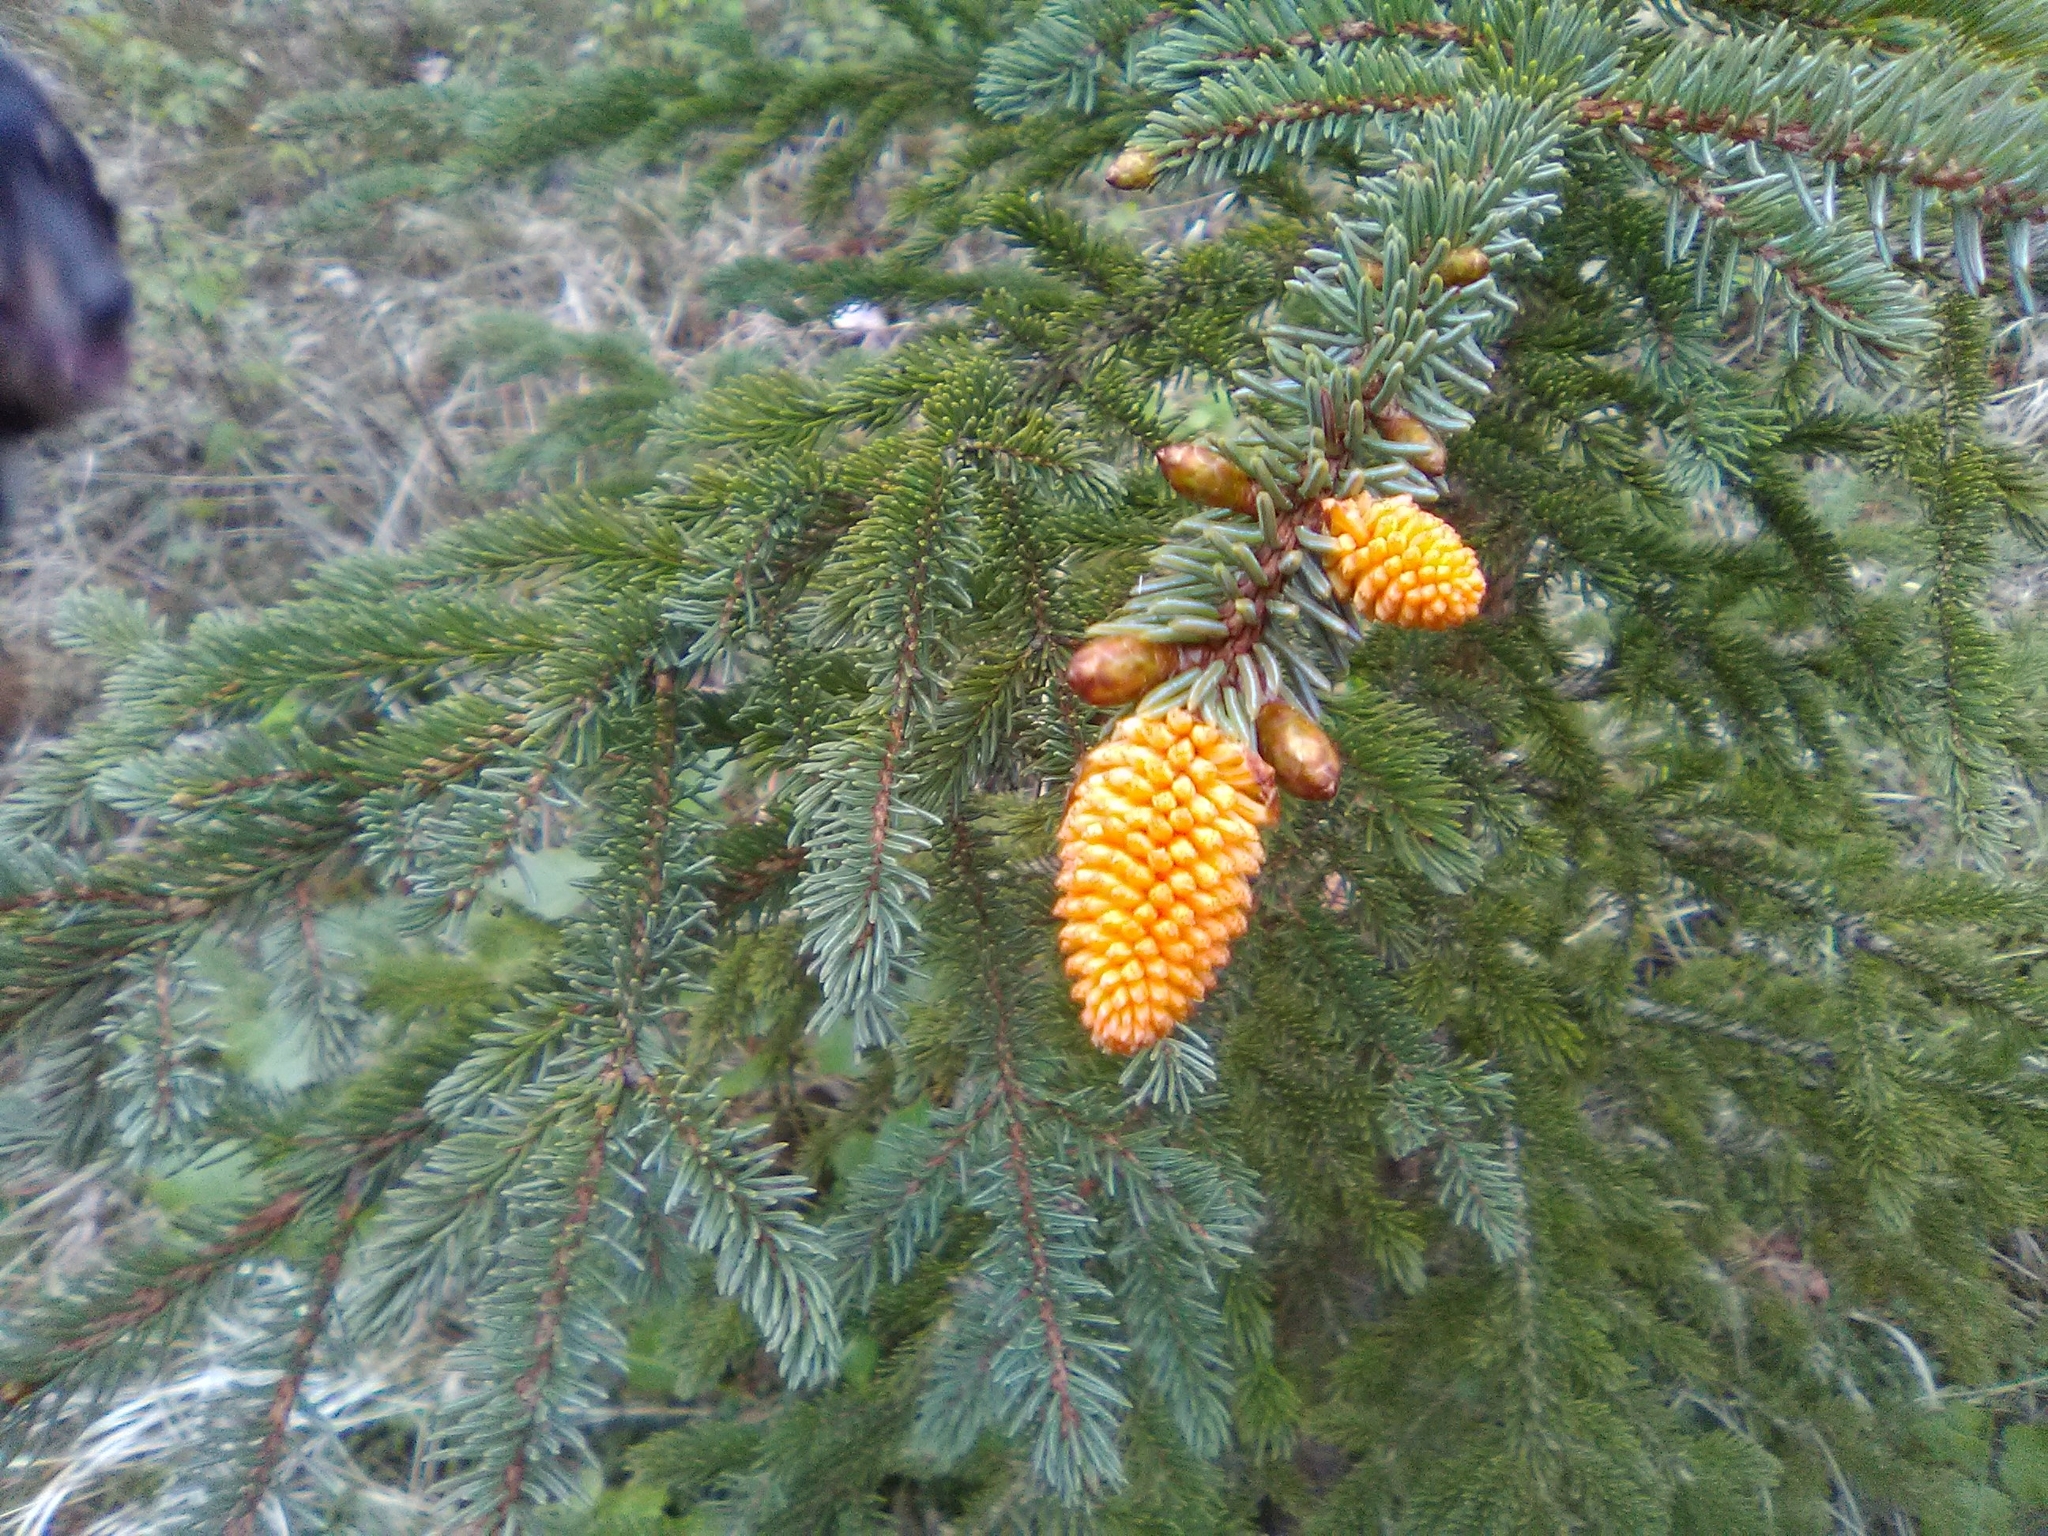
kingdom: Fungi
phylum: Basidiomycota
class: Pucciniomycetes
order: Pucciniales
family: Coleosporiaceae
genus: Chrysomyxa
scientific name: Chrysomyxa woroninii
